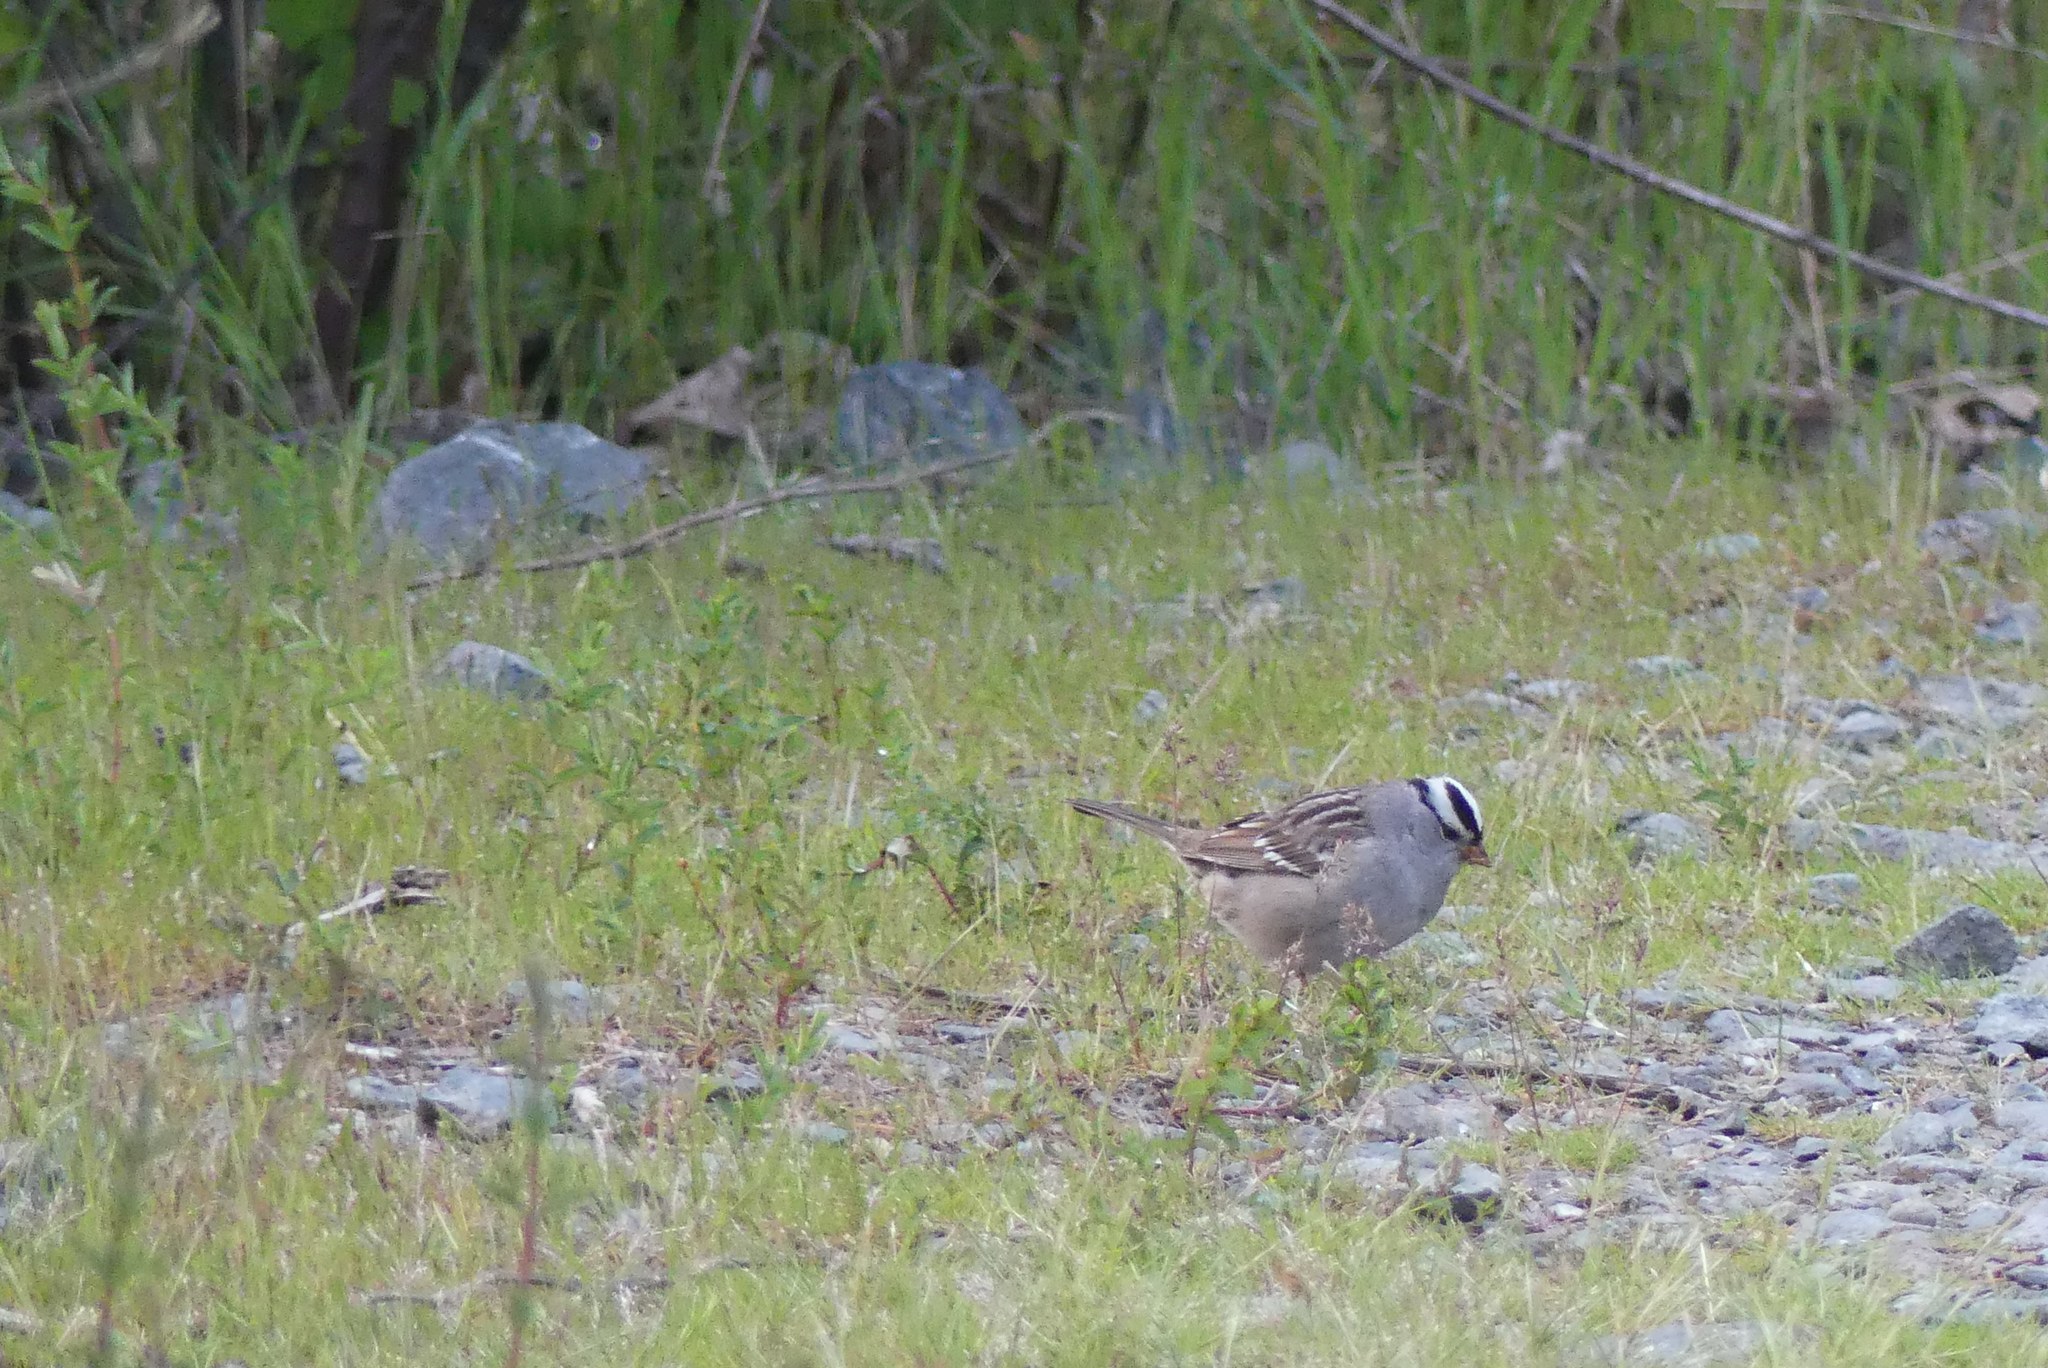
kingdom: Animalia
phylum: Chordata
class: Aves
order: Passeriformes
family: Passerellidae
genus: Zonotrichia
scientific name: Zonotrichia leucophrys
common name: White-crowned sparrow
